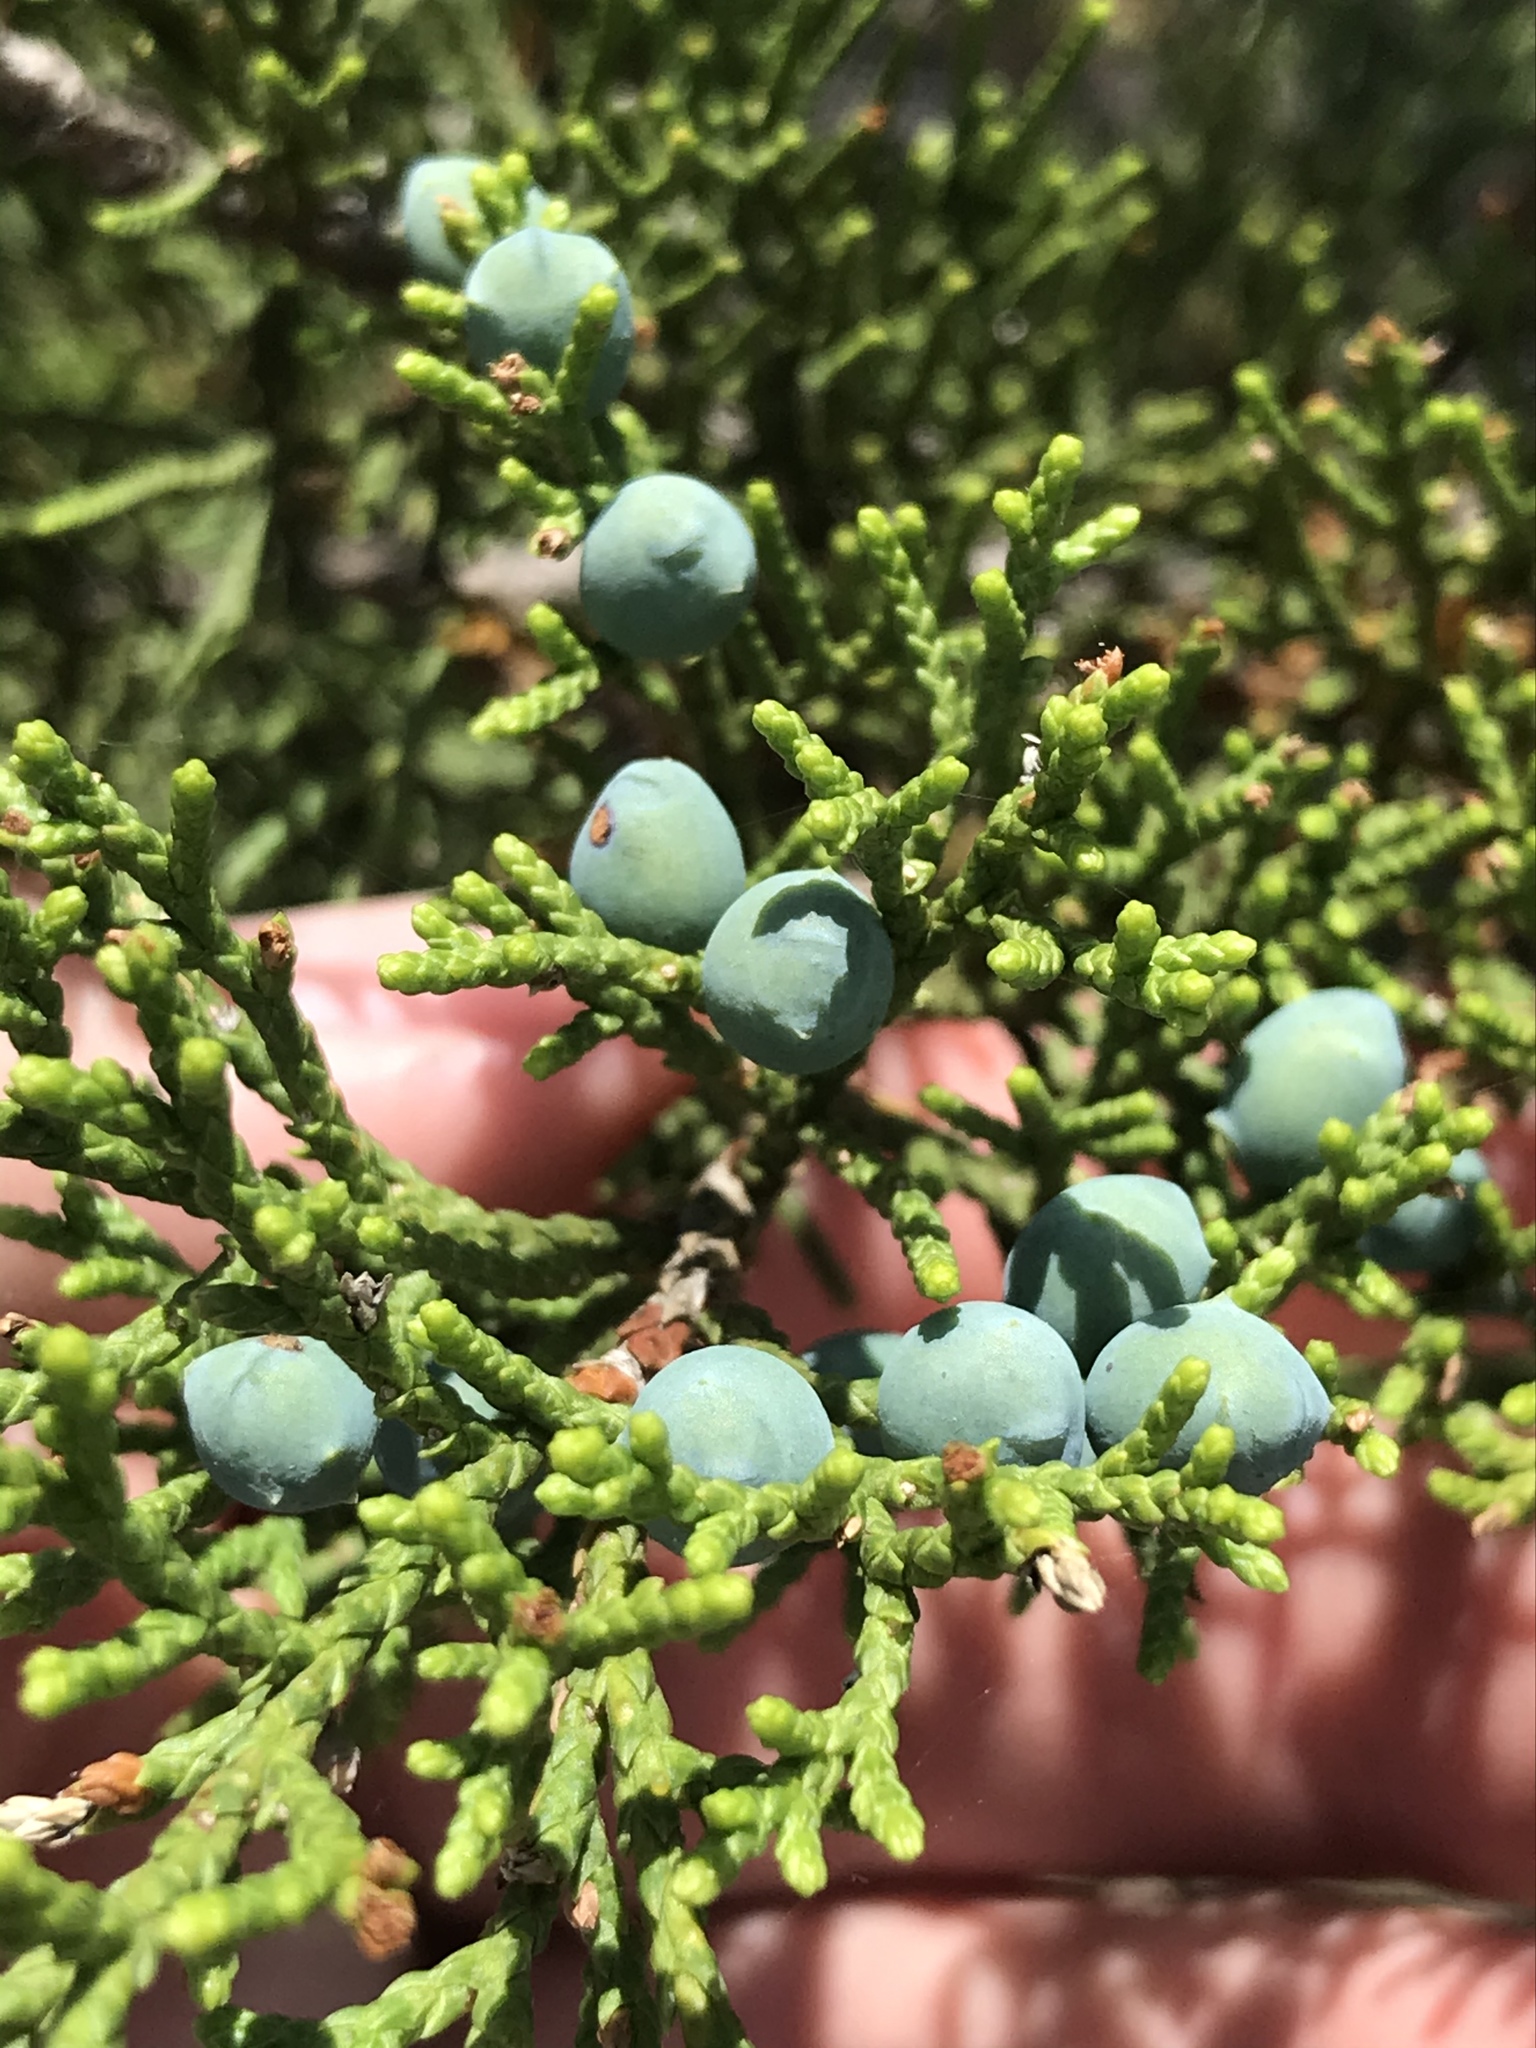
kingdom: Plantae
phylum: Tracheophyta
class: Pinopsida
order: Pinales
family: Cupressaceae
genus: Juniperus
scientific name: Juniperus ashei
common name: Mexican juniper
